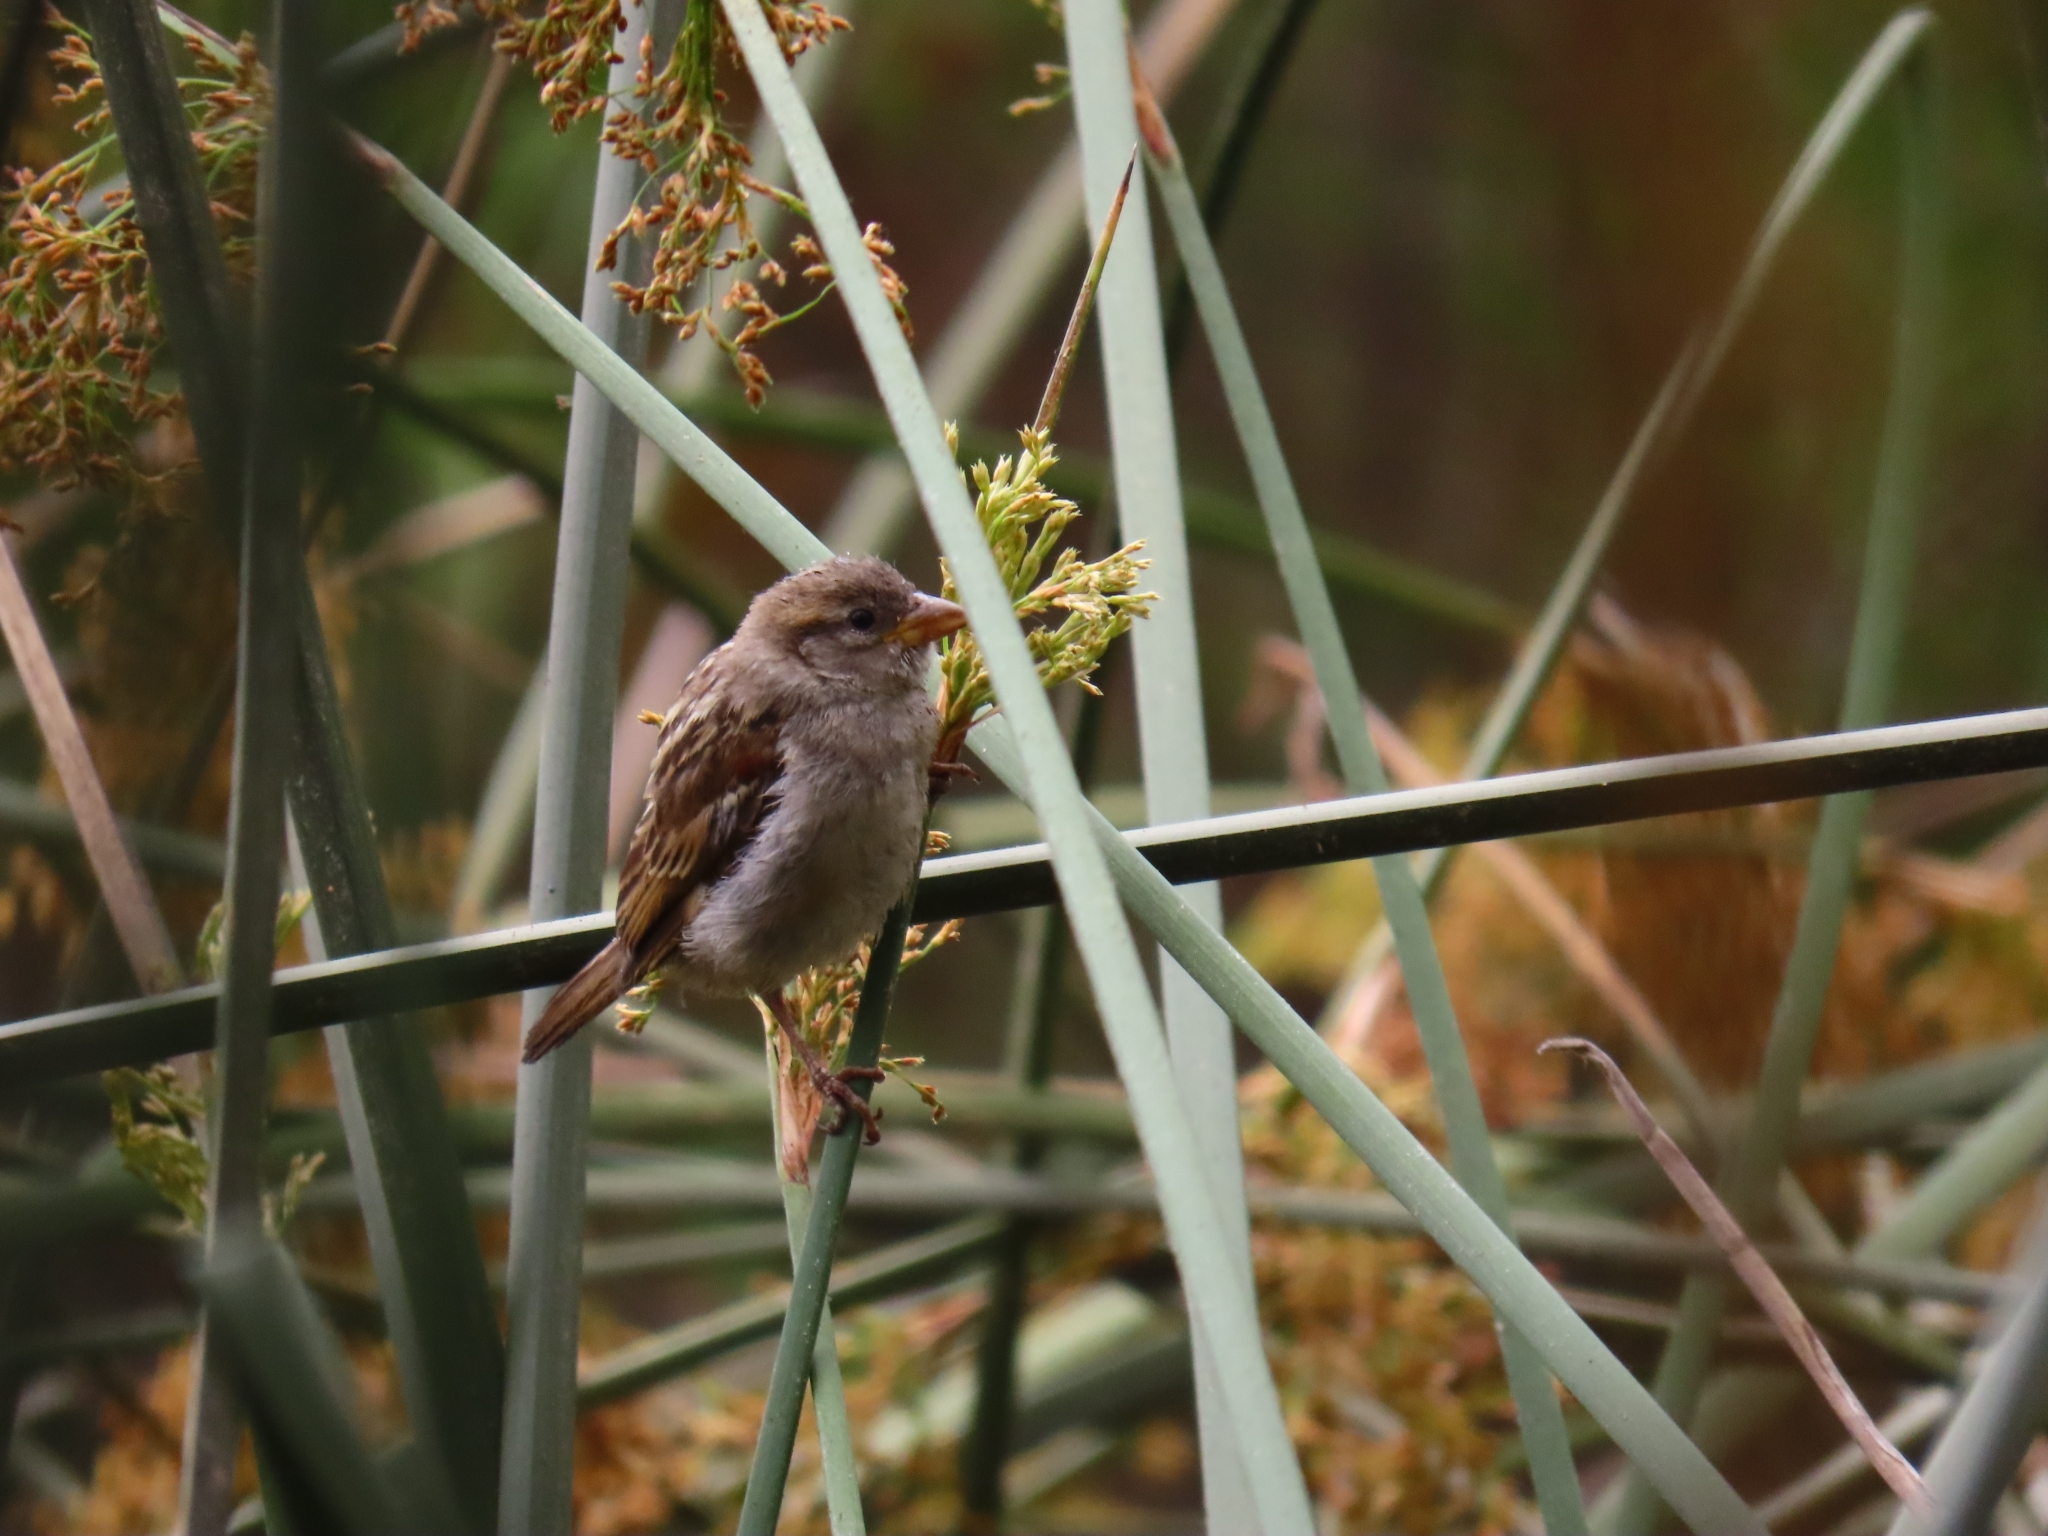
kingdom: Animalia
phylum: Chordata
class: Aves
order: Passeriformes
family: Passeridae
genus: Passer
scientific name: Passer domesticus
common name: House sparrow
